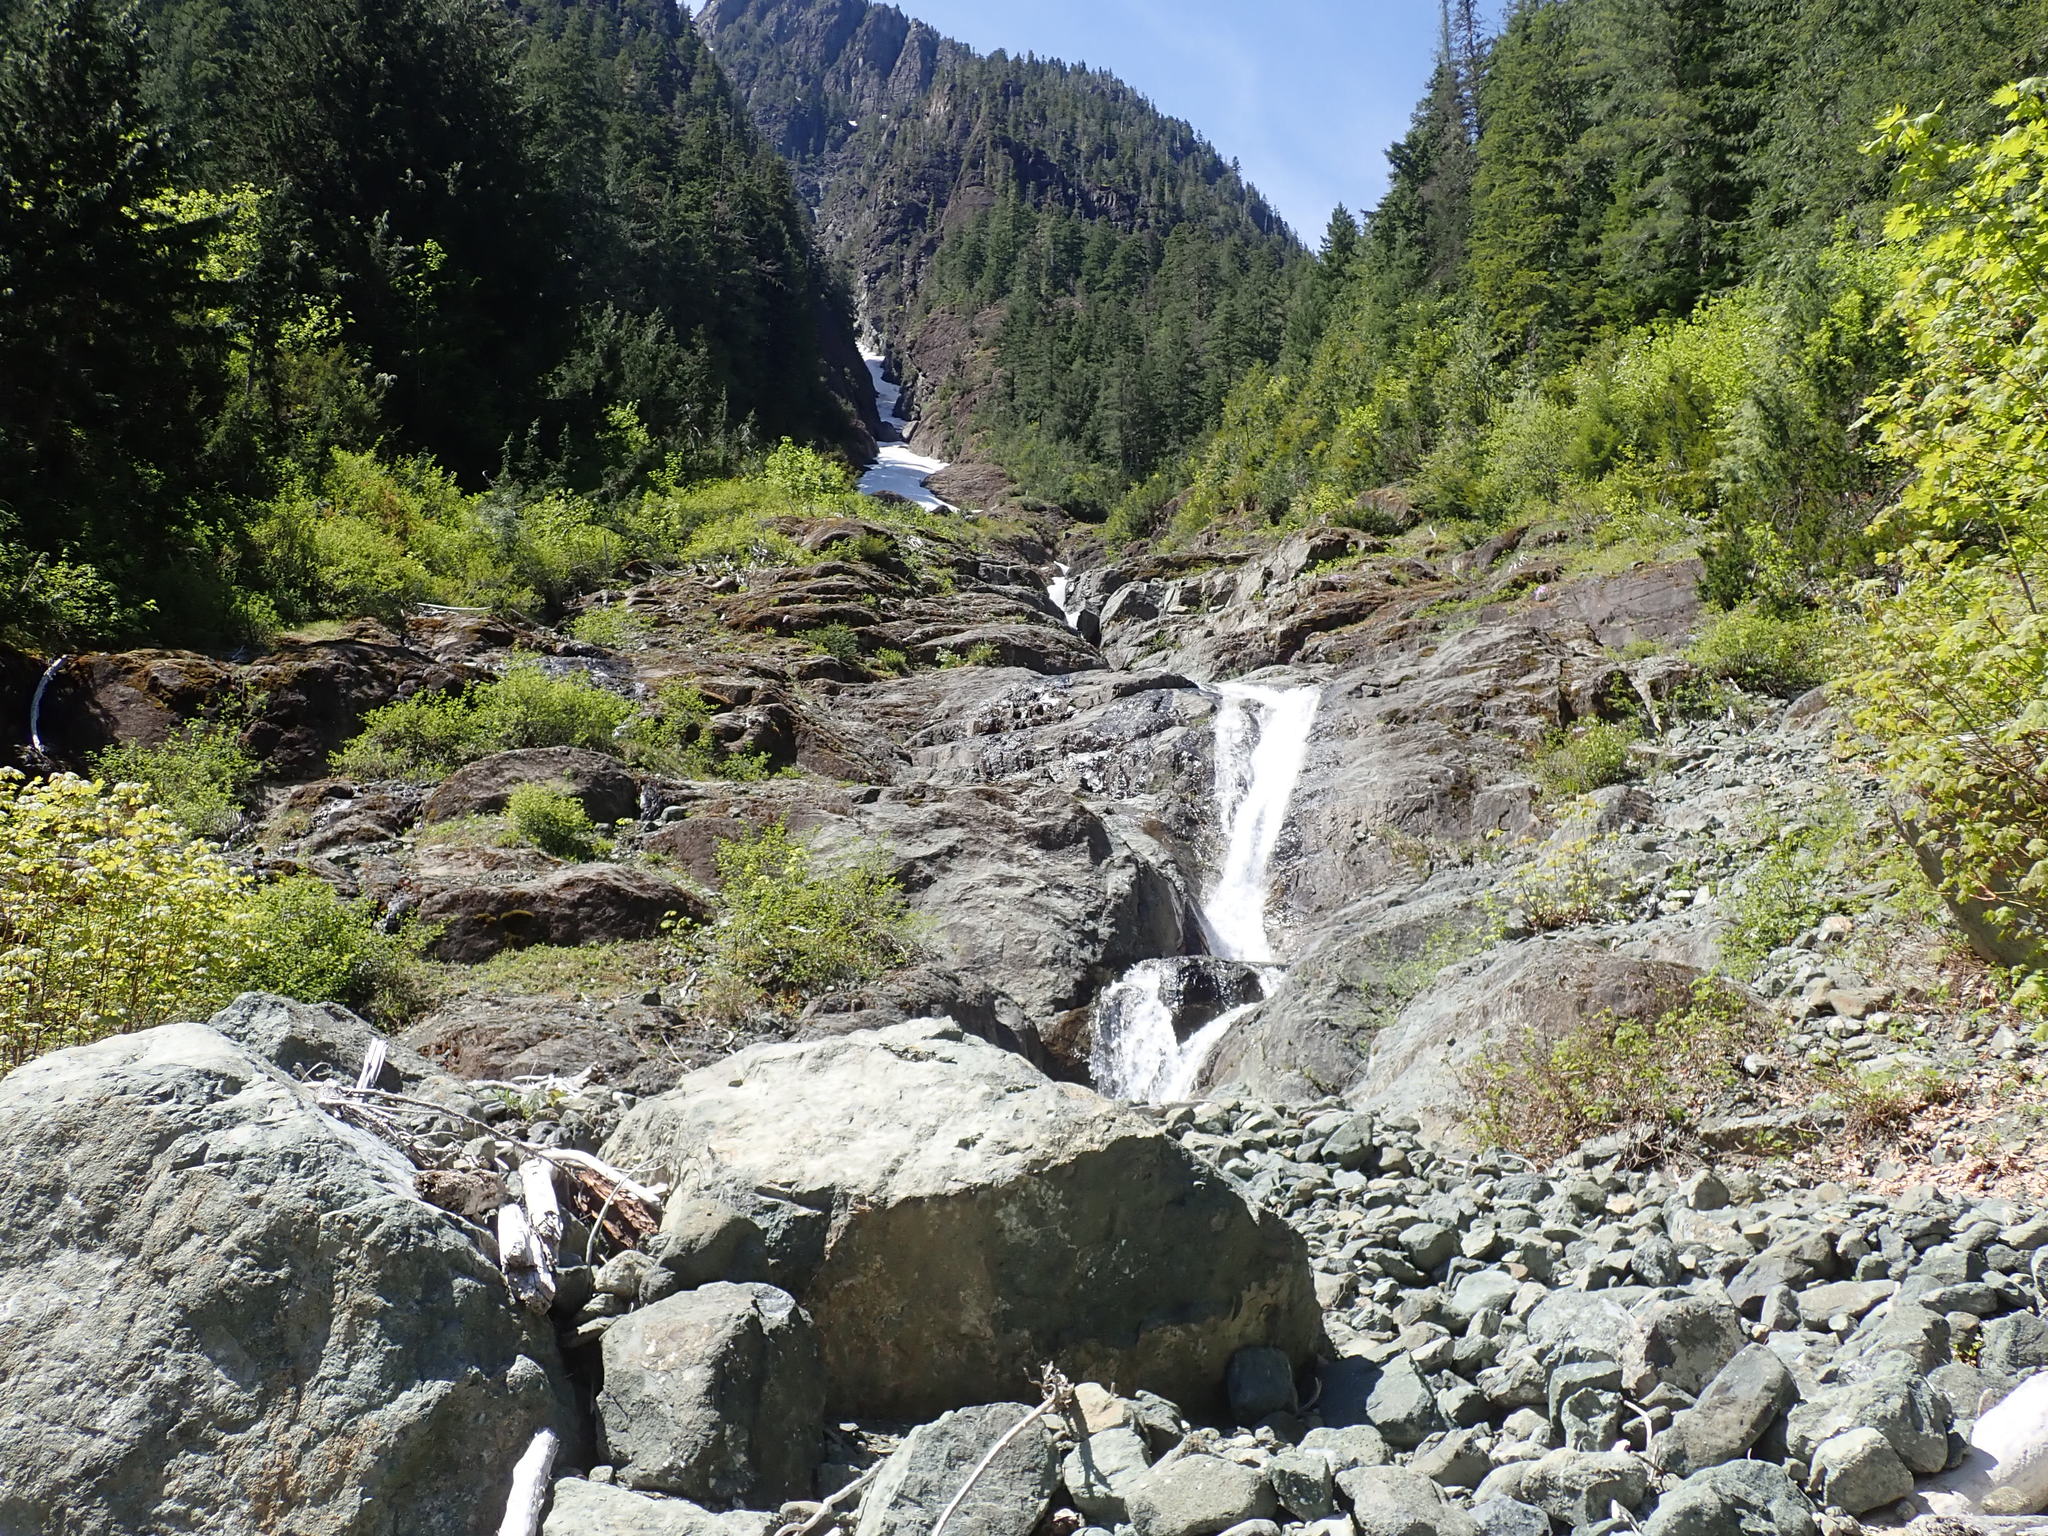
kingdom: Plantae
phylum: Tracheophyta
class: Magnoliopsida
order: Lamiales
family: Orobanchaceae
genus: Castilleja
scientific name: Castilleja hispida
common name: Bristly paintbrush
